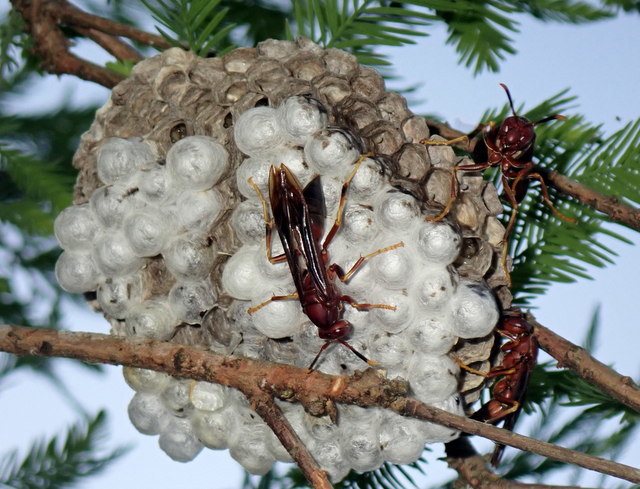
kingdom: Animalia
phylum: Arthropoda
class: Insecta
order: Hymenoptera
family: Eumenidae
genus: Polistes
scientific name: Polistes annularis
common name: Ringed paper wasp
